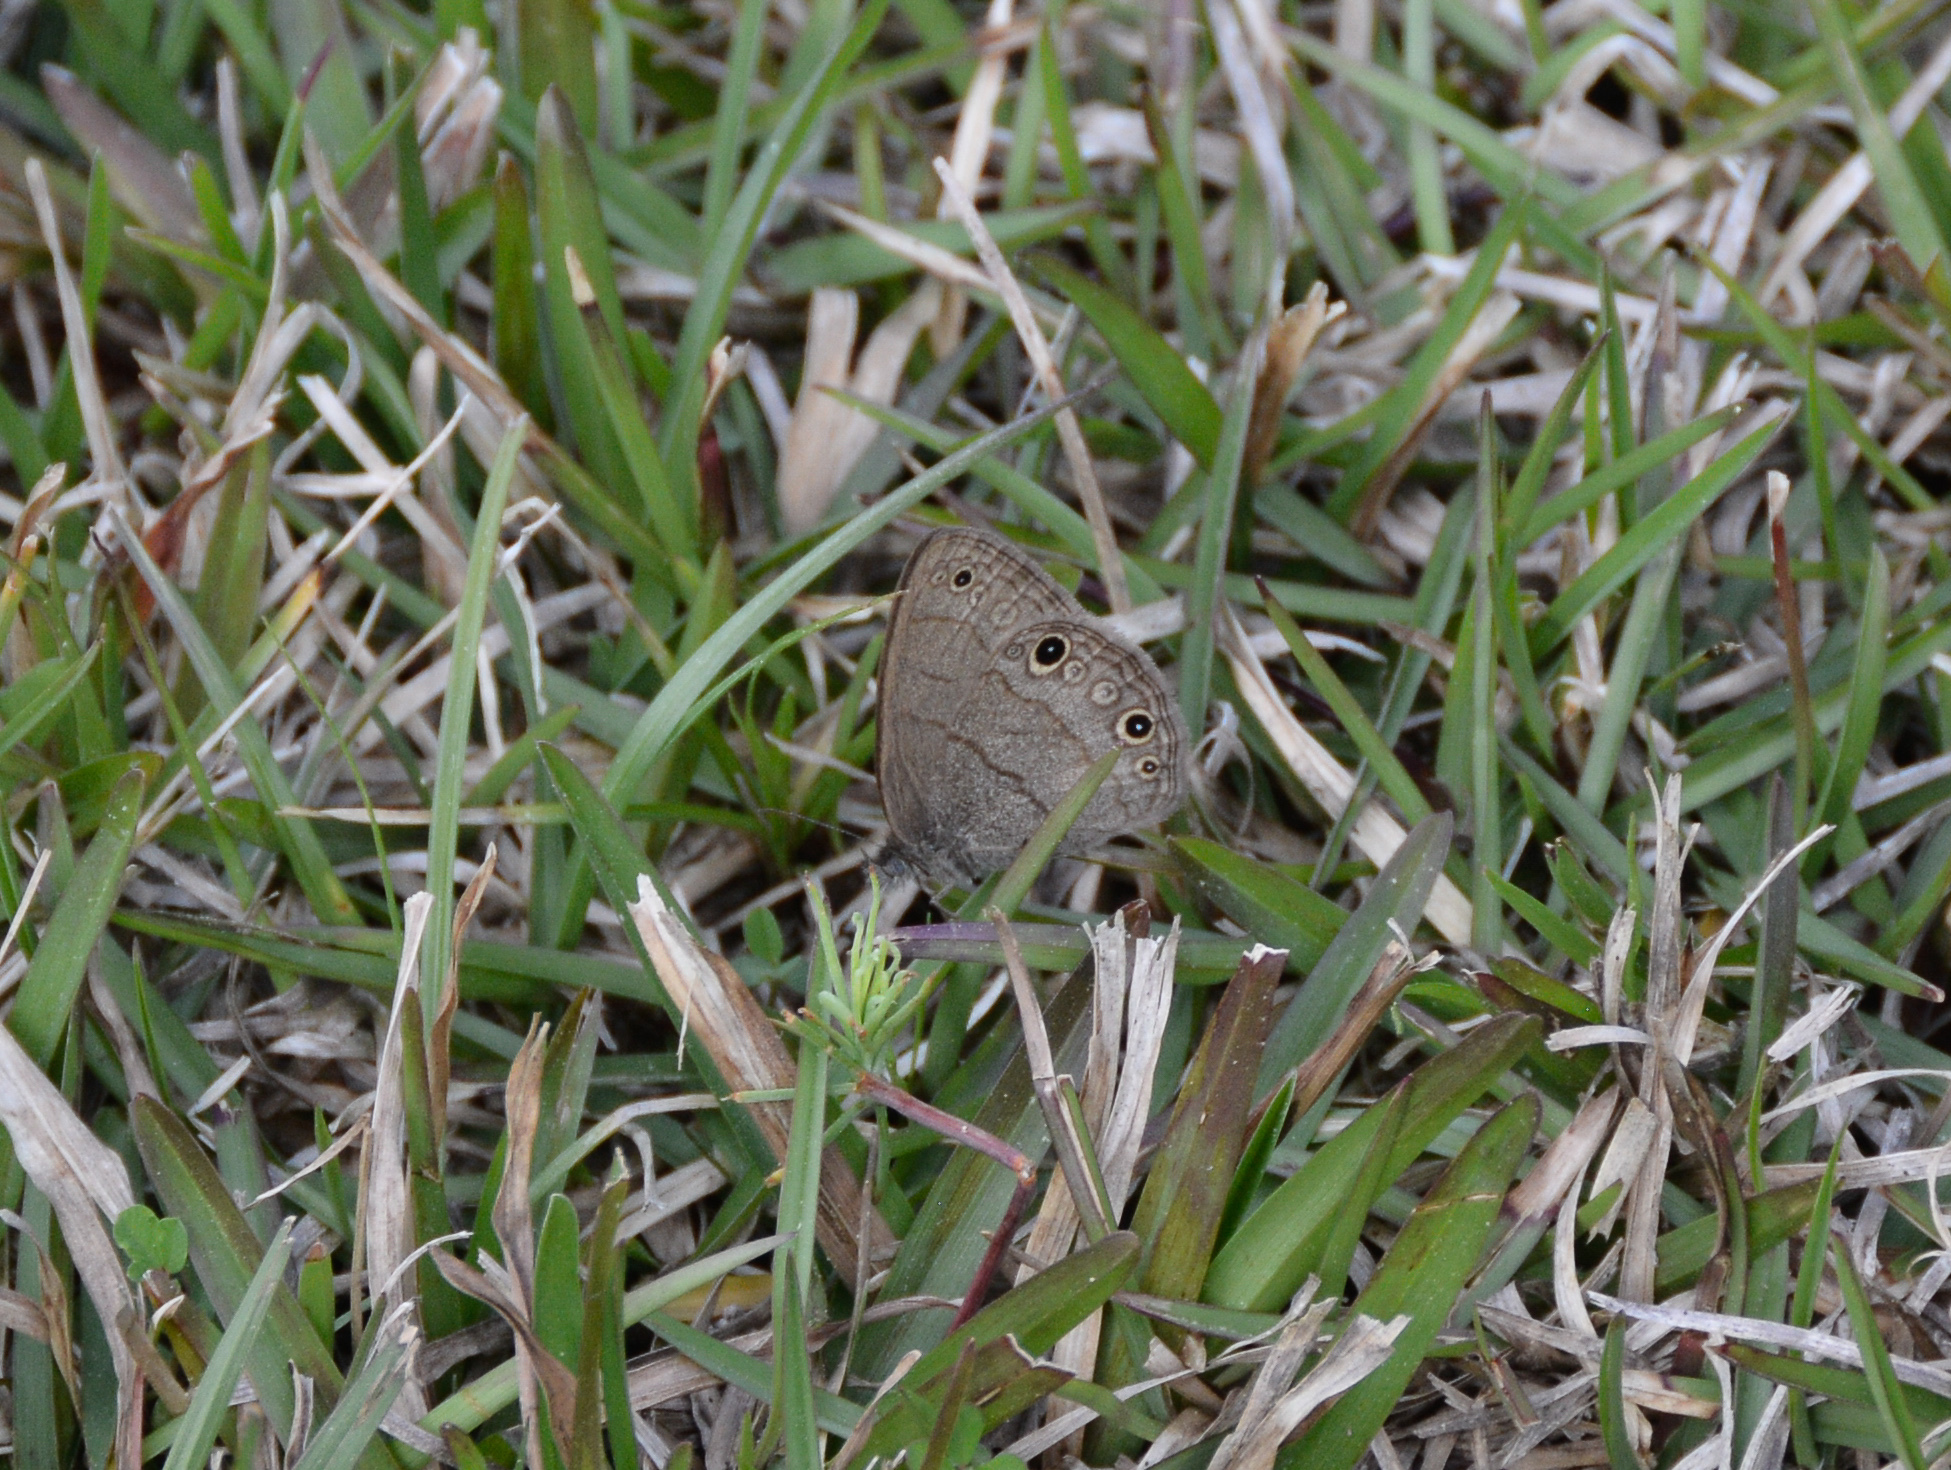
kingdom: Animalia
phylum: Arthropoda
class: Insecta
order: Lepidoptera
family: Nymphalidae
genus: Hermeuptychia
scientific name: Hermeuptychia hermes
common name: Hermes satyr
